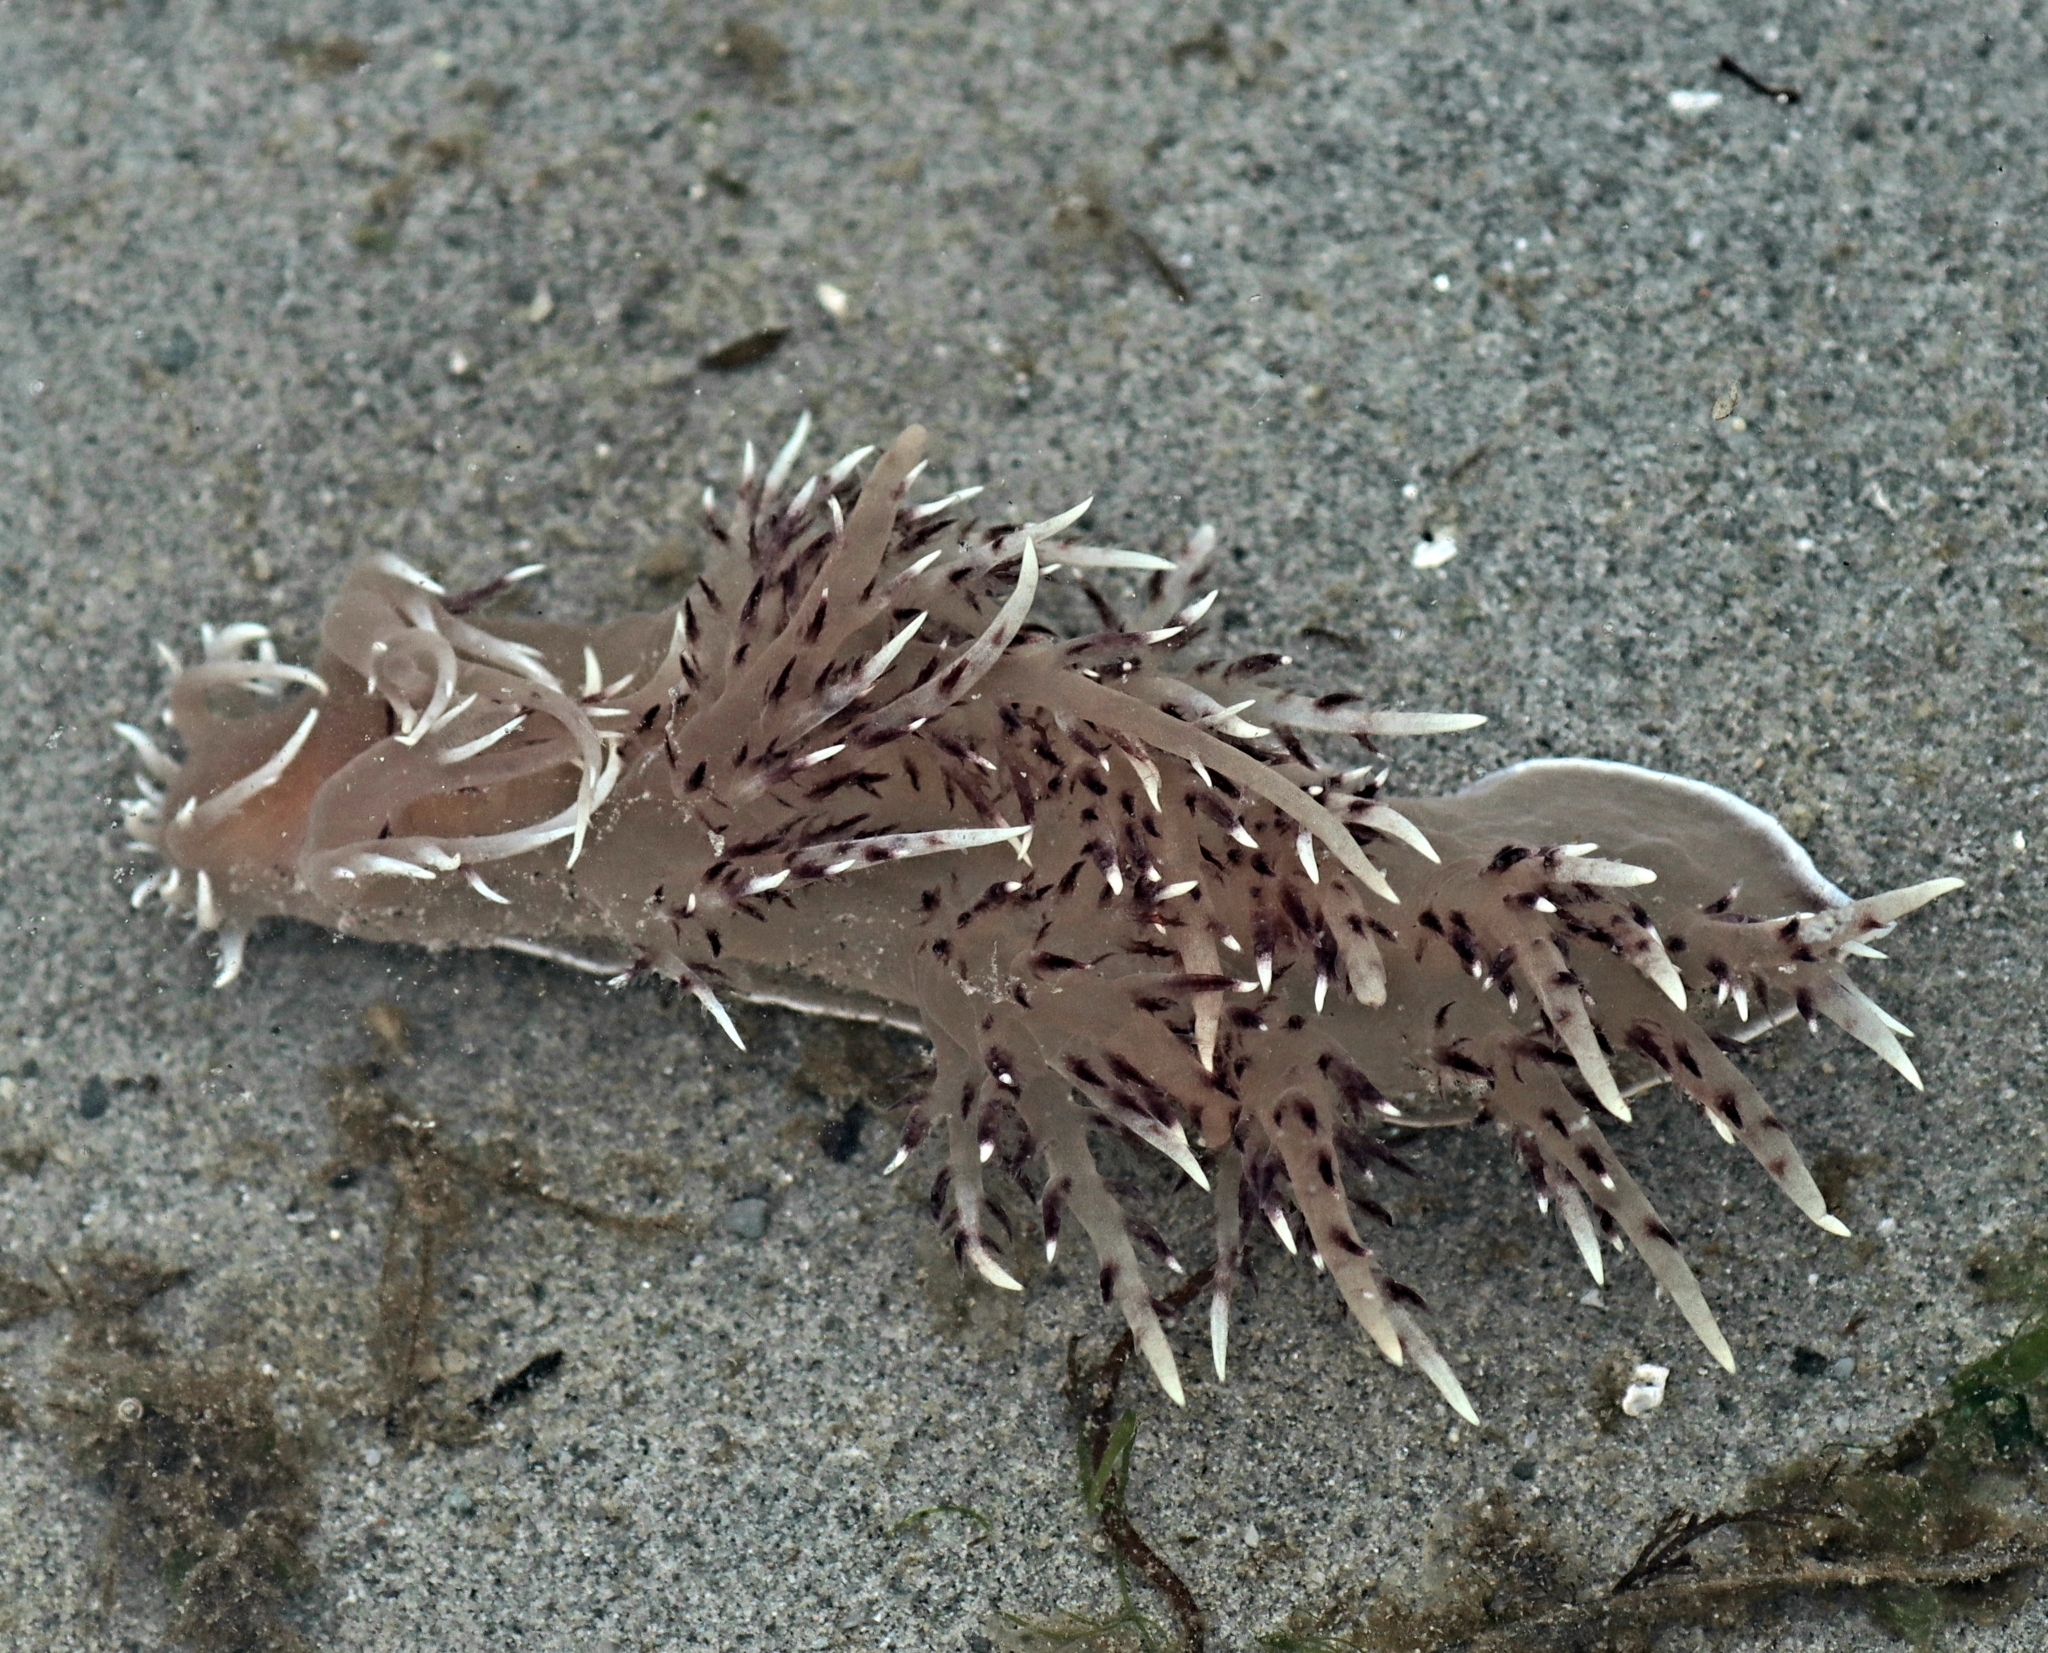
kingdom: Animalia
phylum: Mollusca
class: Gastropoda
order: Nudibranchia
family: Dendronotidae
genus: Dendronotus
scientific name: Dendronotus iris
